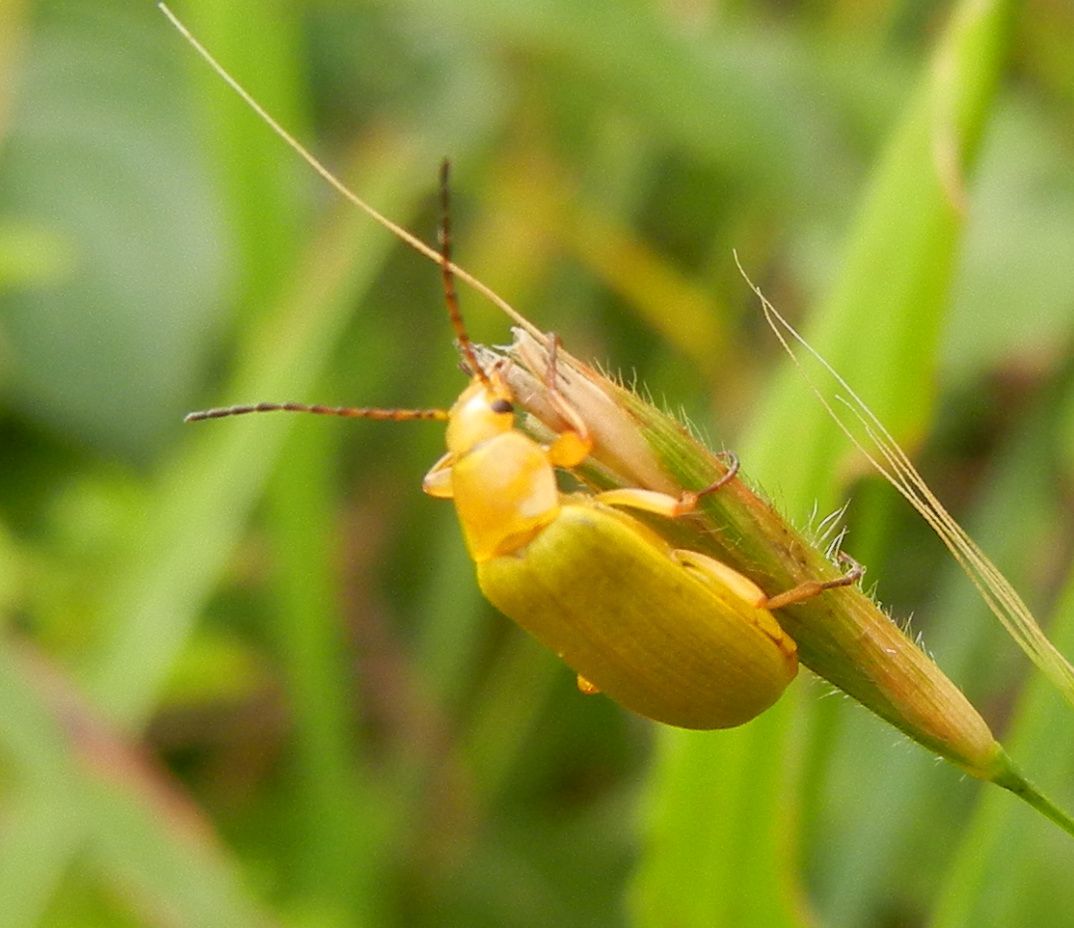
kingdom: Animalia
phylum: Arthropoda
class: Insecta
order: Coleoptera
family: Tenebrionidae
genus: Cteniopus
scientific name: Cteniopus sulphureus
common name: Sulphur beetle
